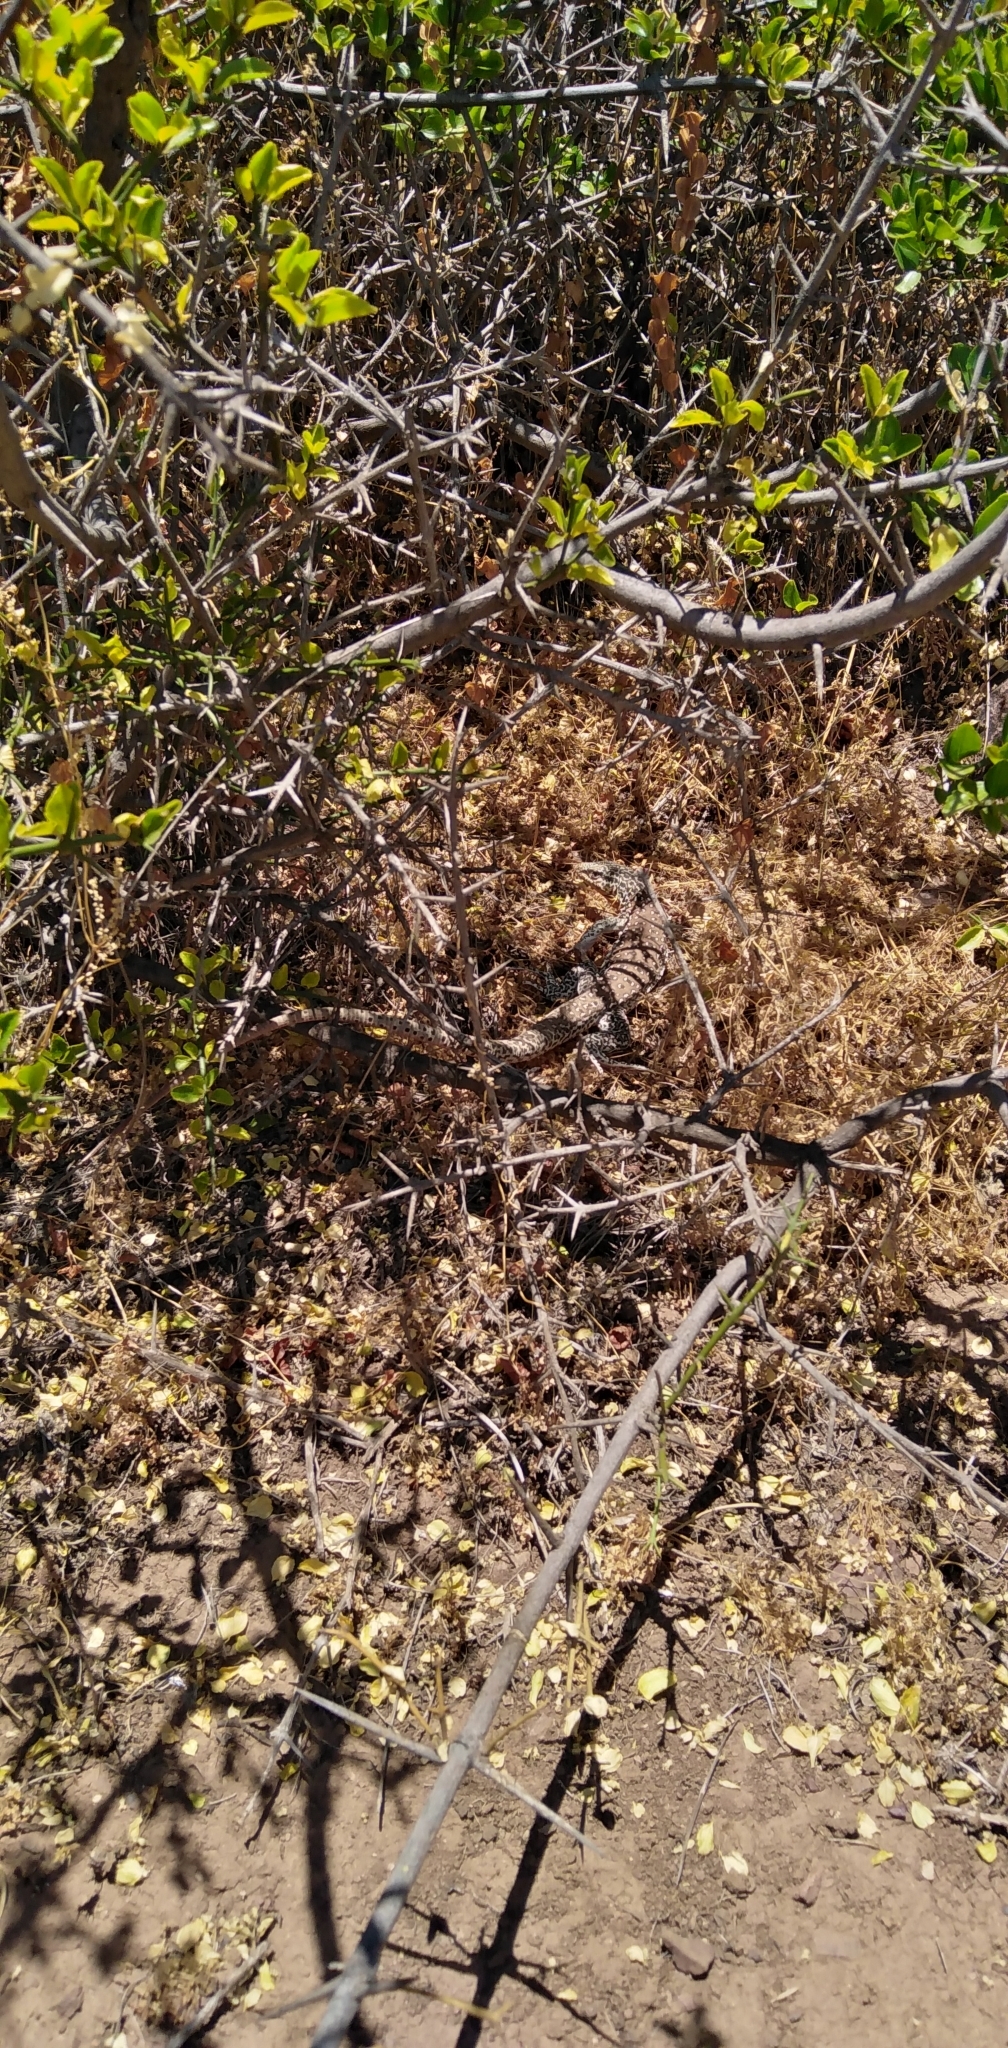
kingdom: Animalia
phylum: Chordata
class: Squamata
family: Teiidae
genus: Callopistes
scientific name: Callopistes maculatus
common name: Spotted false monitor
